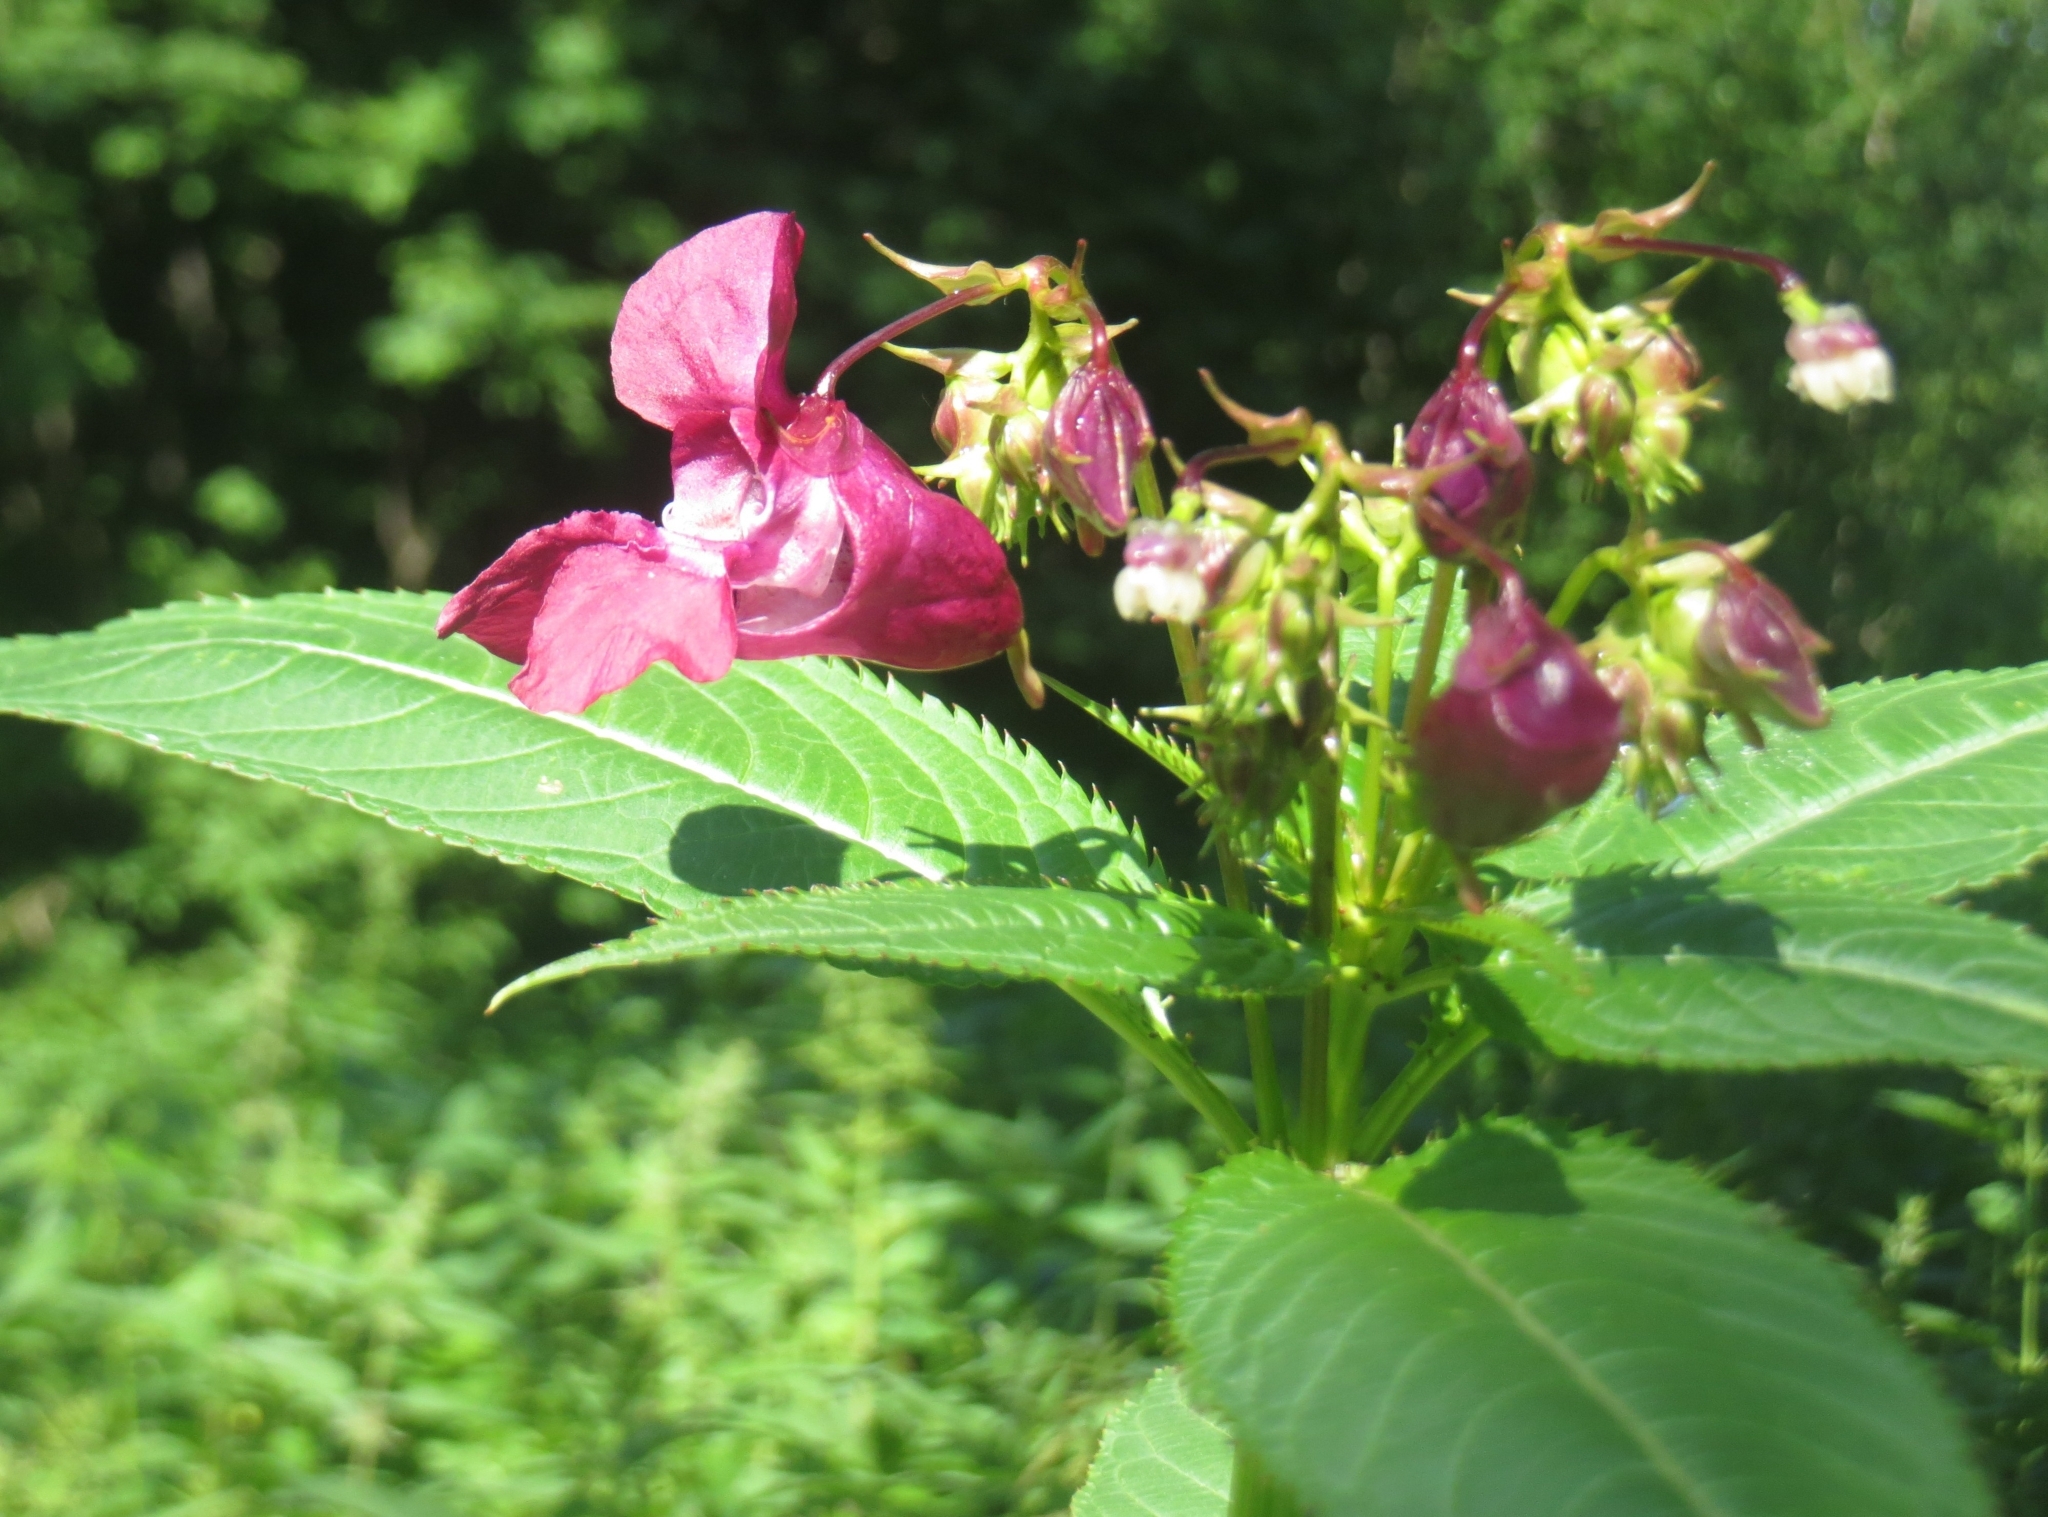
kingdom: Plantae
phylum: Tracheophyta
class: Magnoliopsida
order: Ericales
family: Balsaminaceae
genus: Impatiens
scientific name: Impatiens glandulifera
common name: Himalayan balsam
